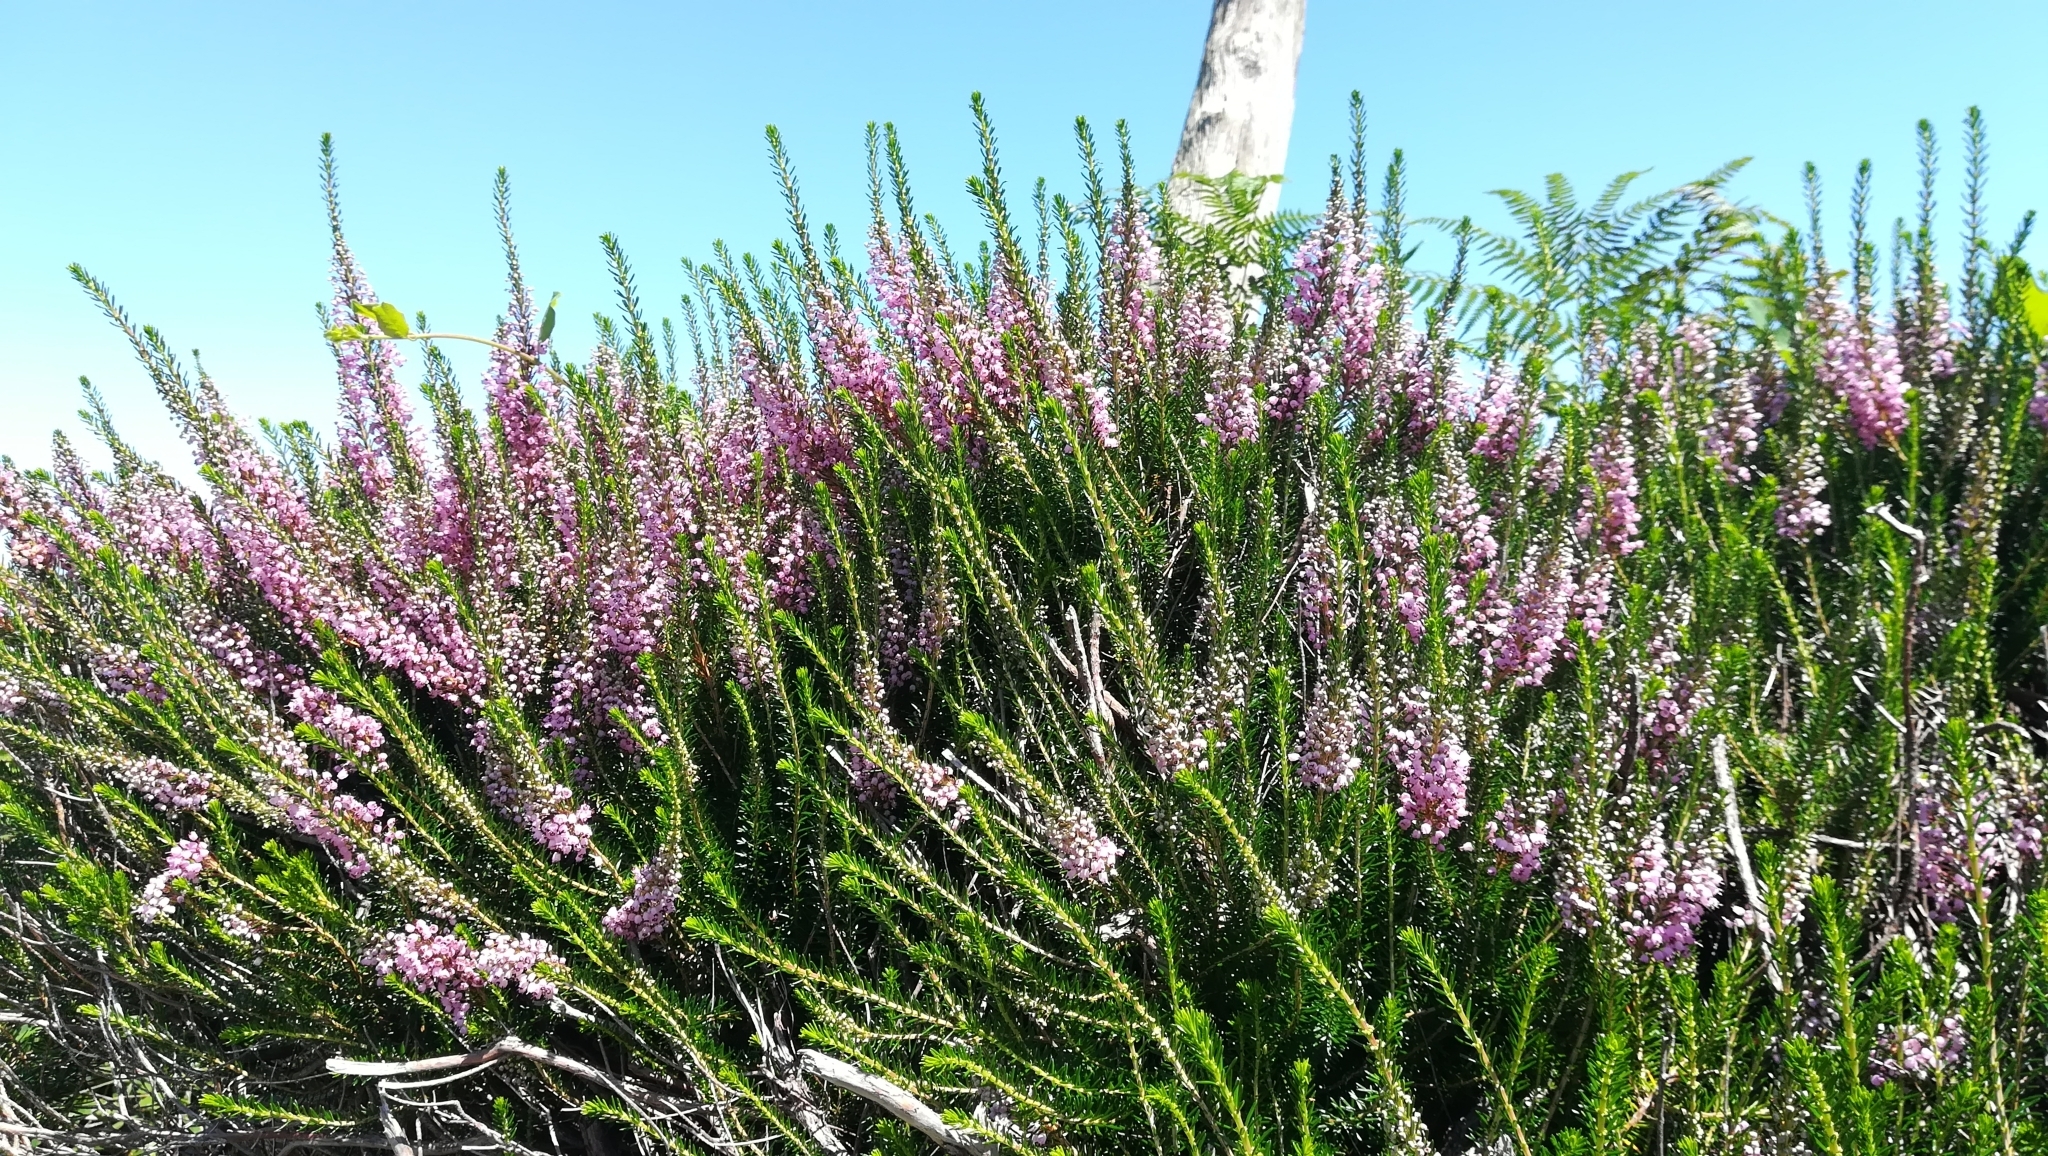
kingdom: Plantae
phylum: Tracheophyta
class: Magnoliopsida
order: Ericales
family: Ericaceae
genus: Erica
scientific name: Erica vagans
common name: Cornish heath
